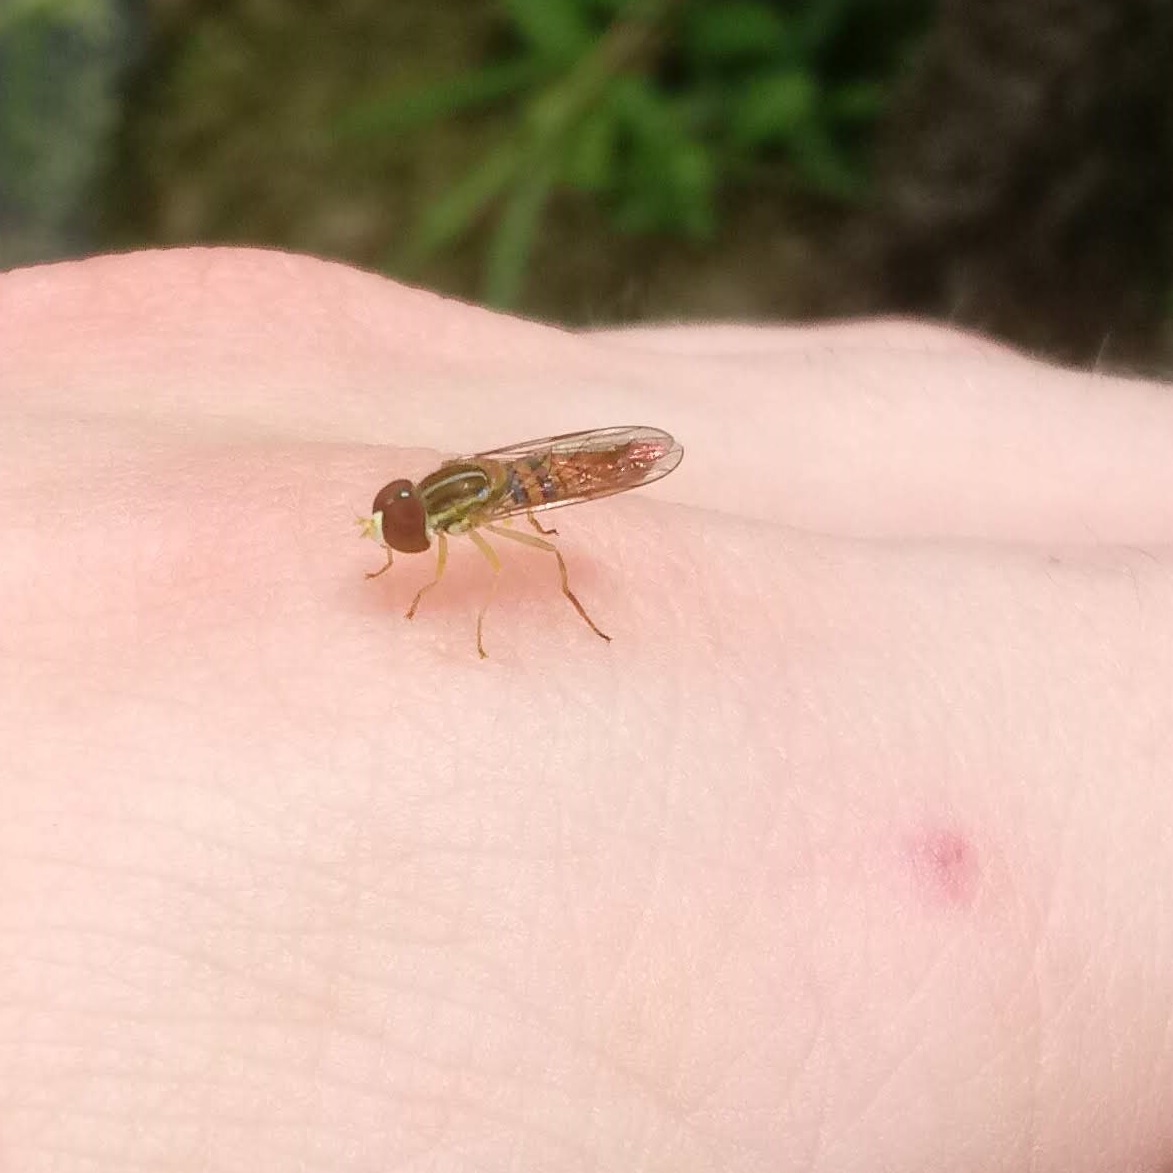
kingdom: Animalia
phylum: Arthropoda
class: Insecta
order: Diptera
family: Syrphidae
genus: Toxomerus
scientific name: Toxomerus politus
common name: Maize calligrapher
